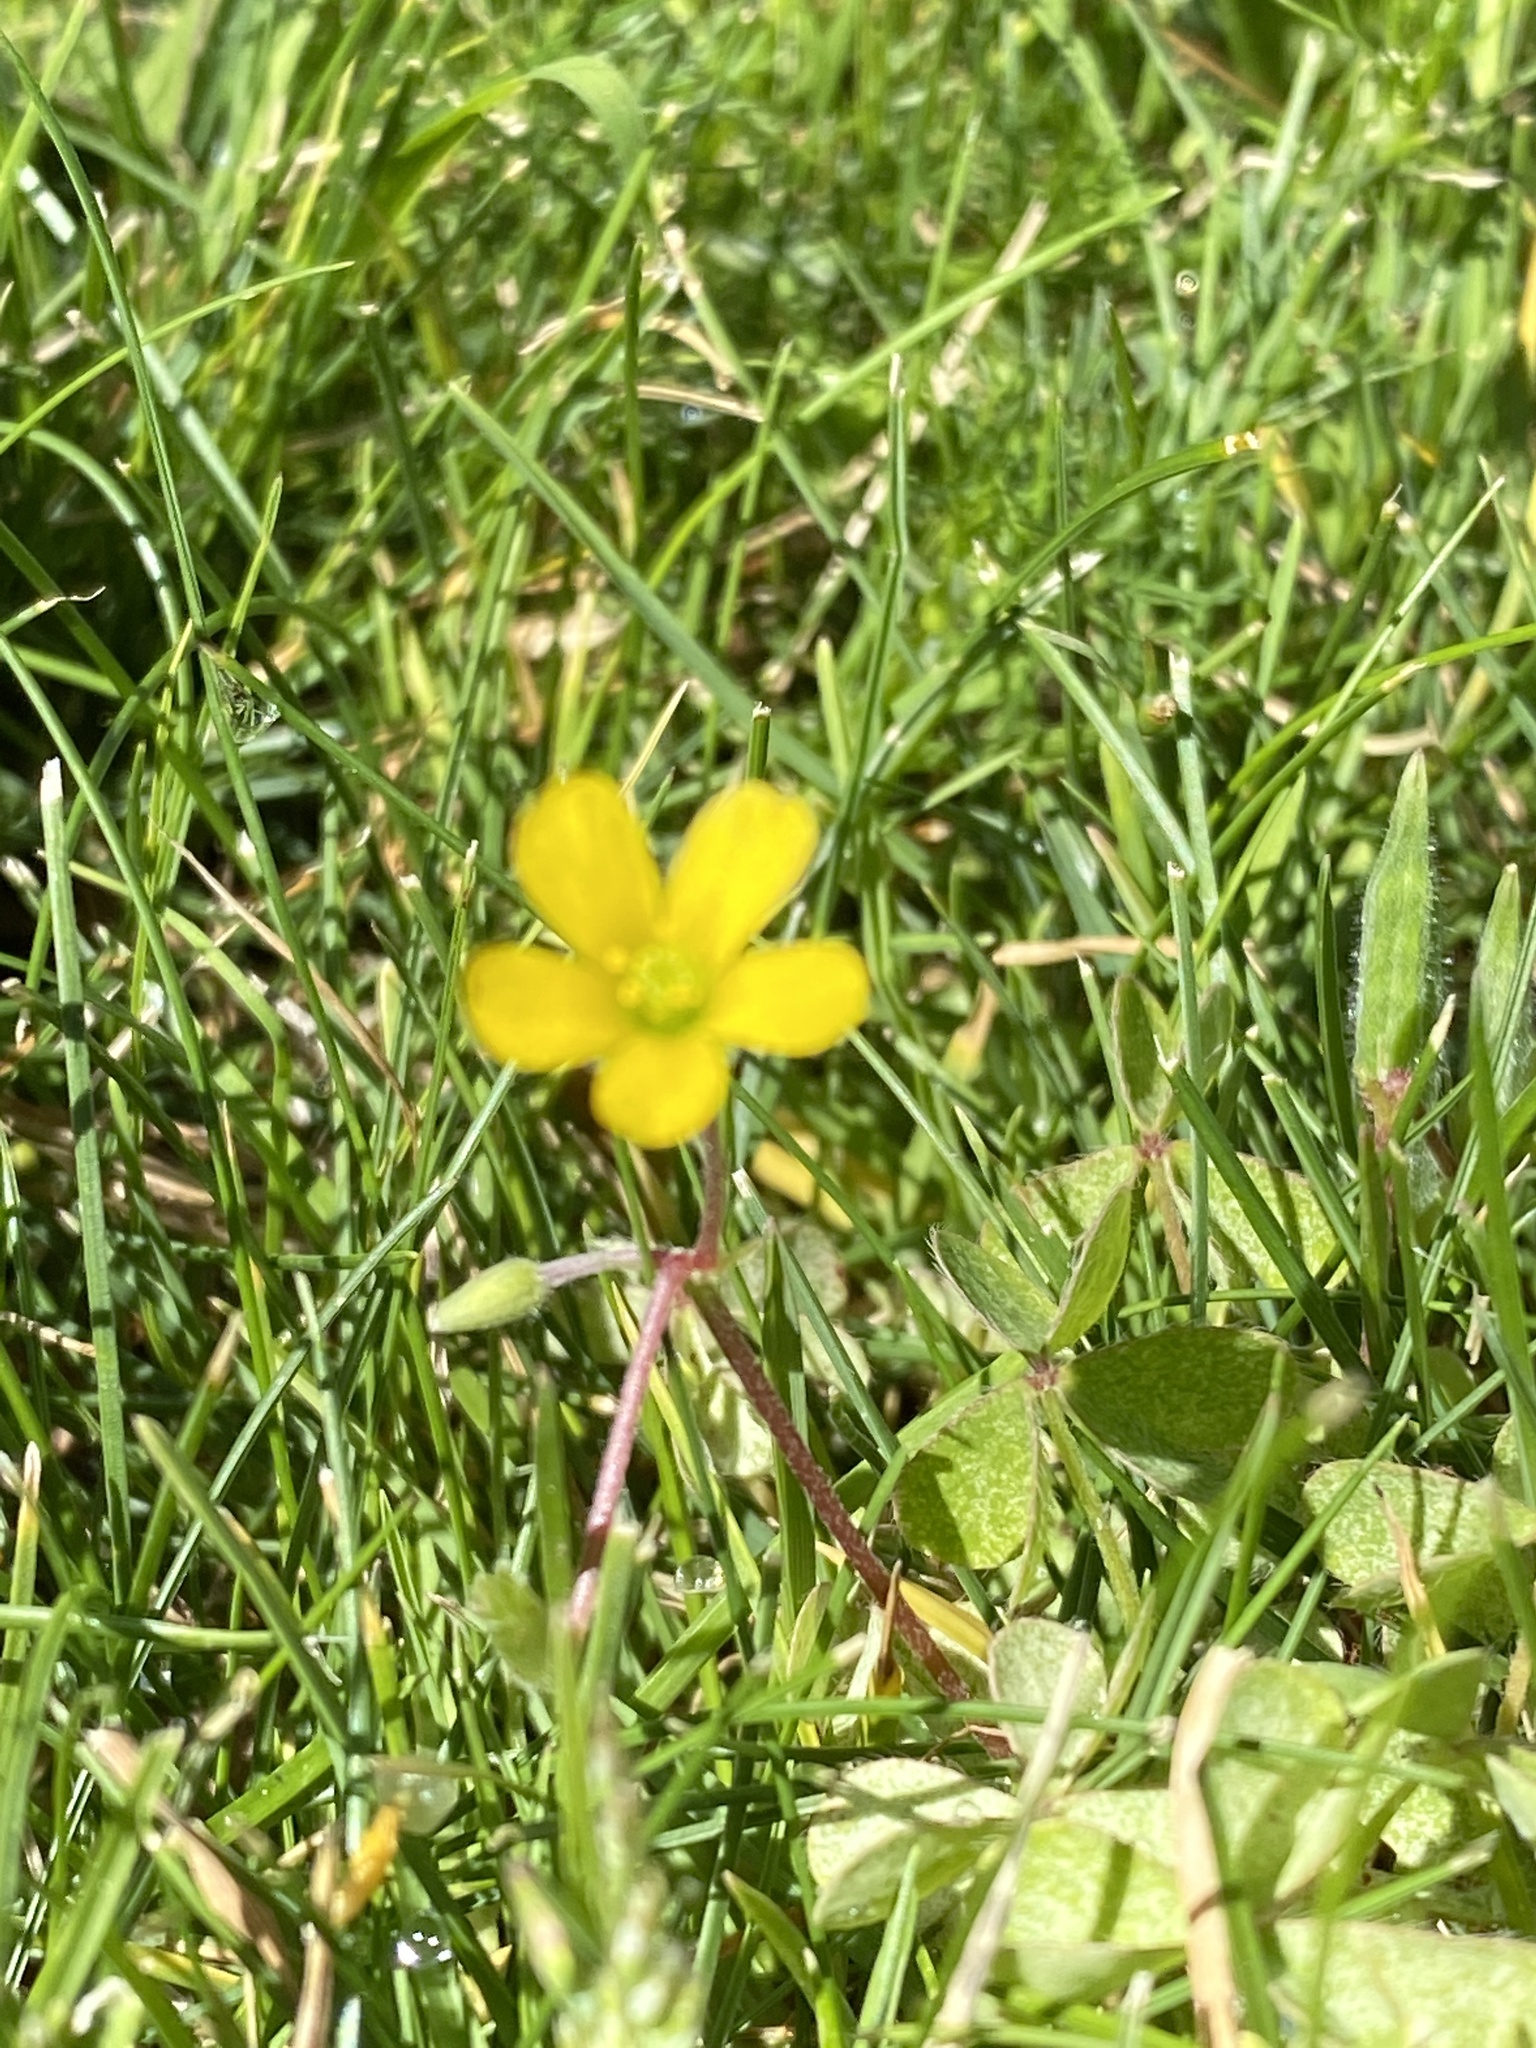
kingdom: Plantae
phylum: Tracheophyta
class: Magnoliopsida
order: Oxalidales
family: Oxalidaceae
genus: Oxalis
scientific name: Oxalis corniculata
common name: Procumbent yellow-sorrel
